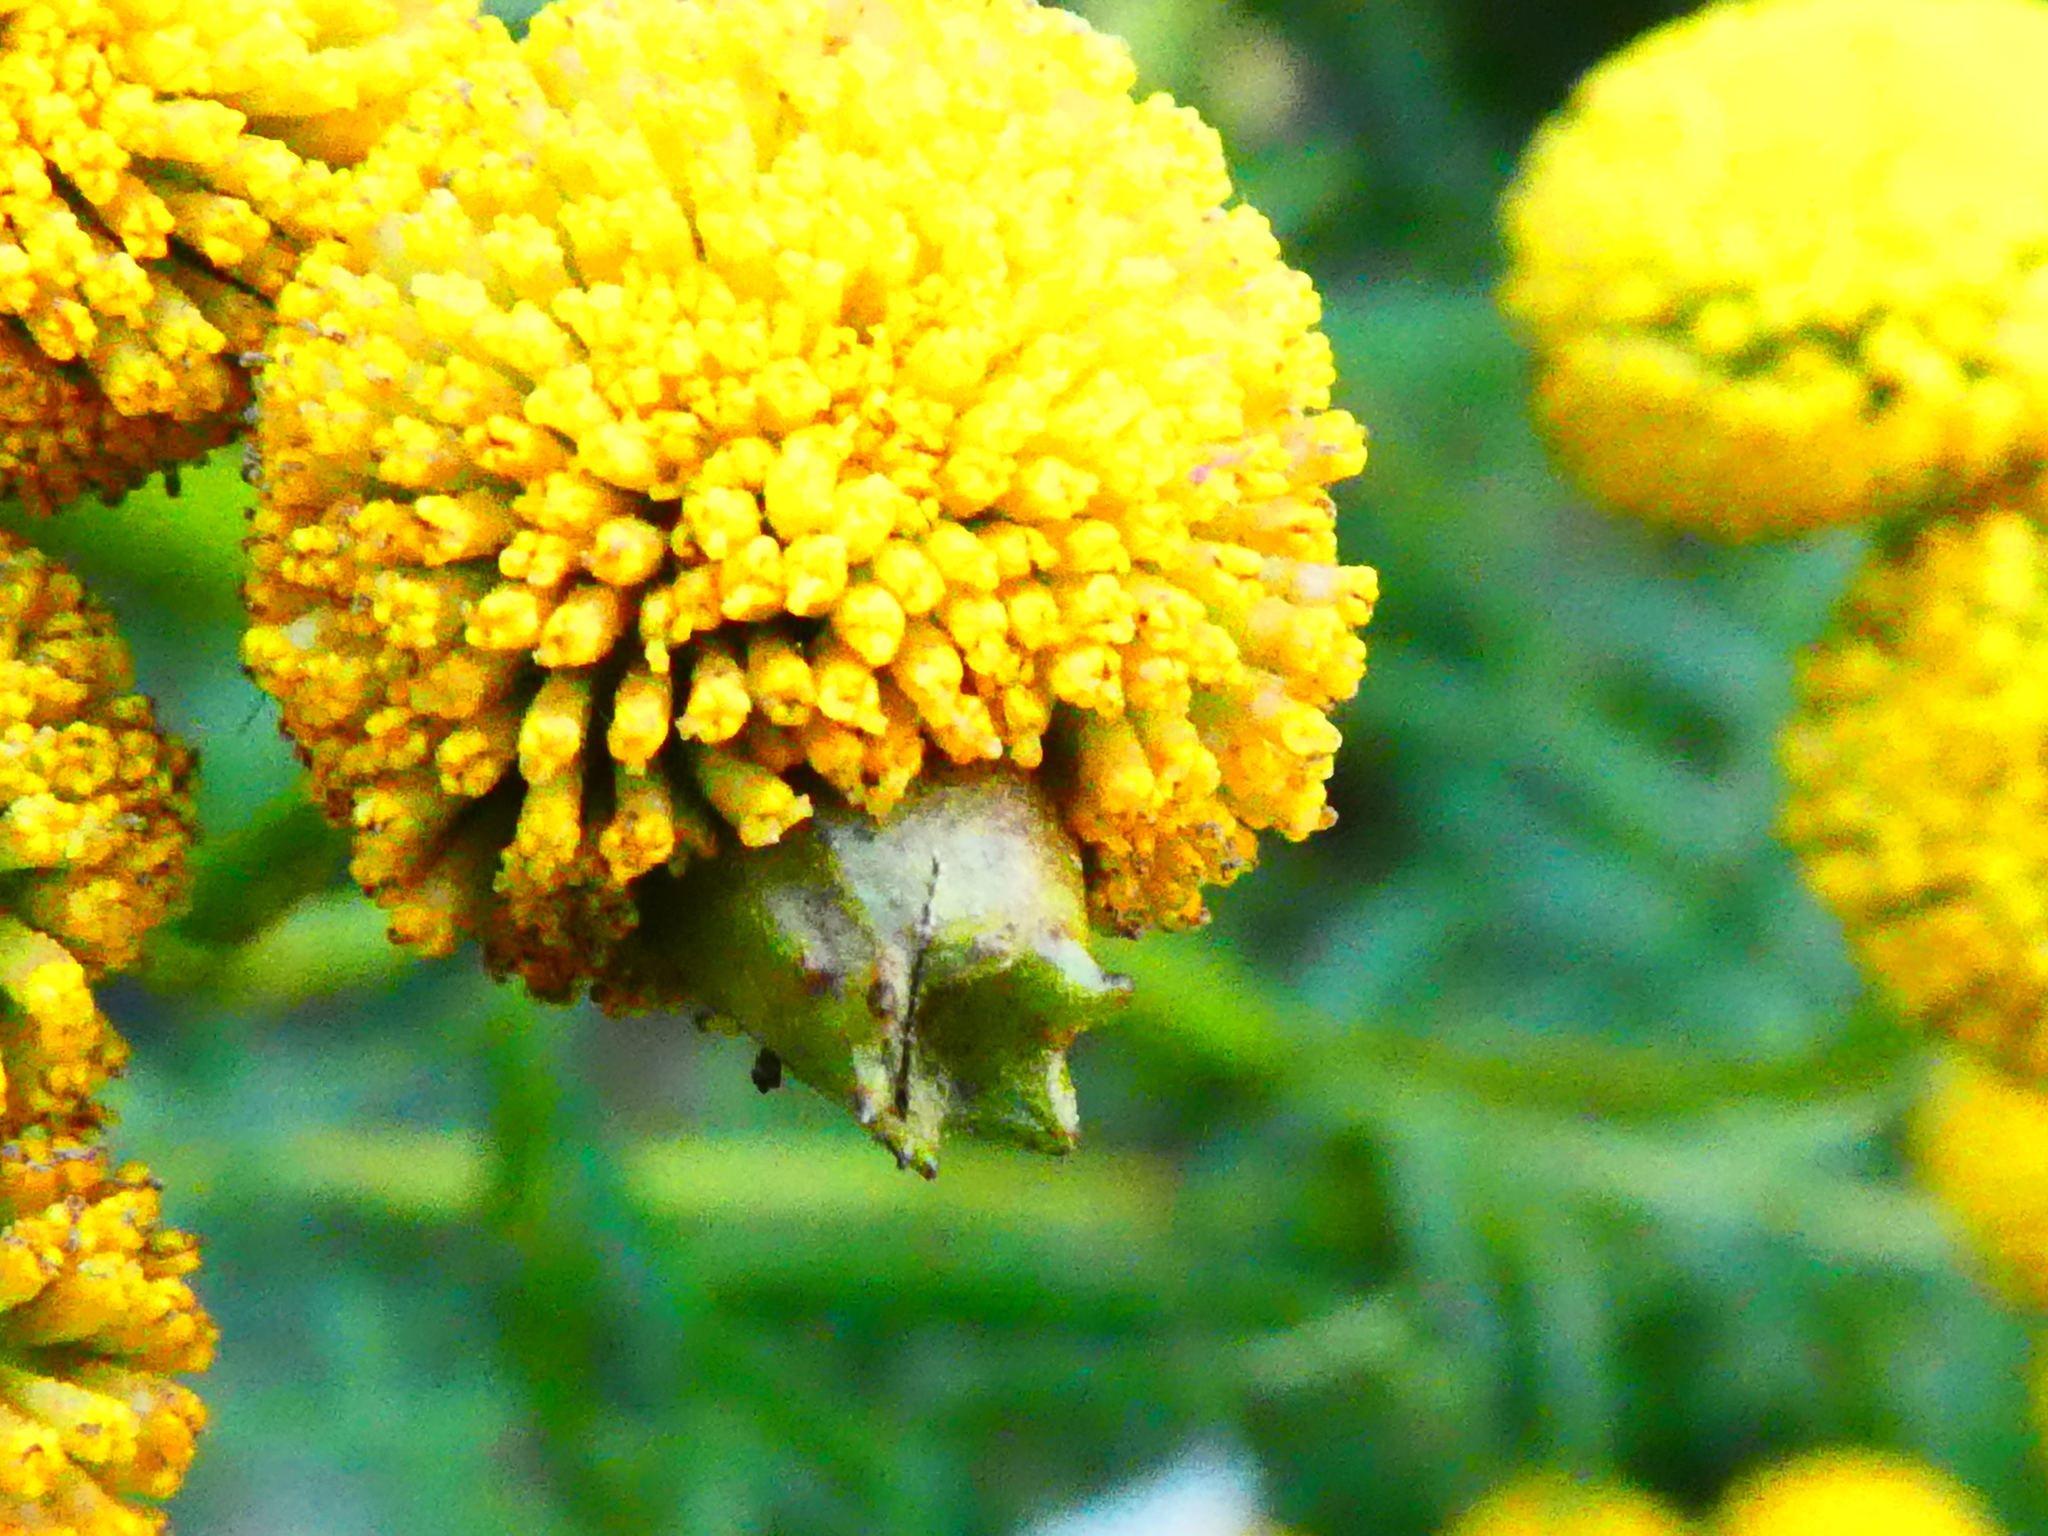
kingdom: Animalia
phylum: Arthropoda
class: Insecta
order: Diptera
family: Cecidomyiidae
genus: Rhopalomyia
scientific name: Rhopalomyia tanaceticolus
